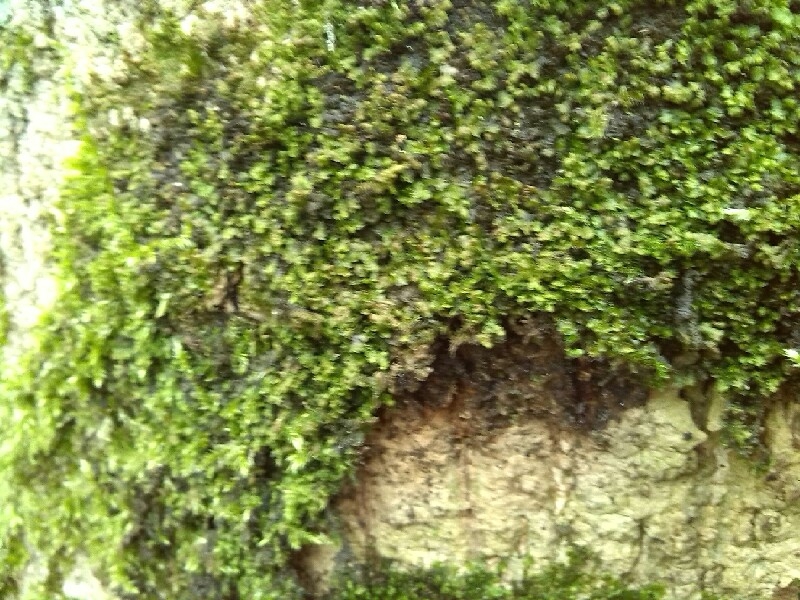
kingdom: Plantae
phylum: Marchantiophyta
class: Jungermanniopsida
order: Porellales
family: Frullaniaceae
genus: Frullania
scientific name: Frullania dilatata
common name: Dilated scalewort
